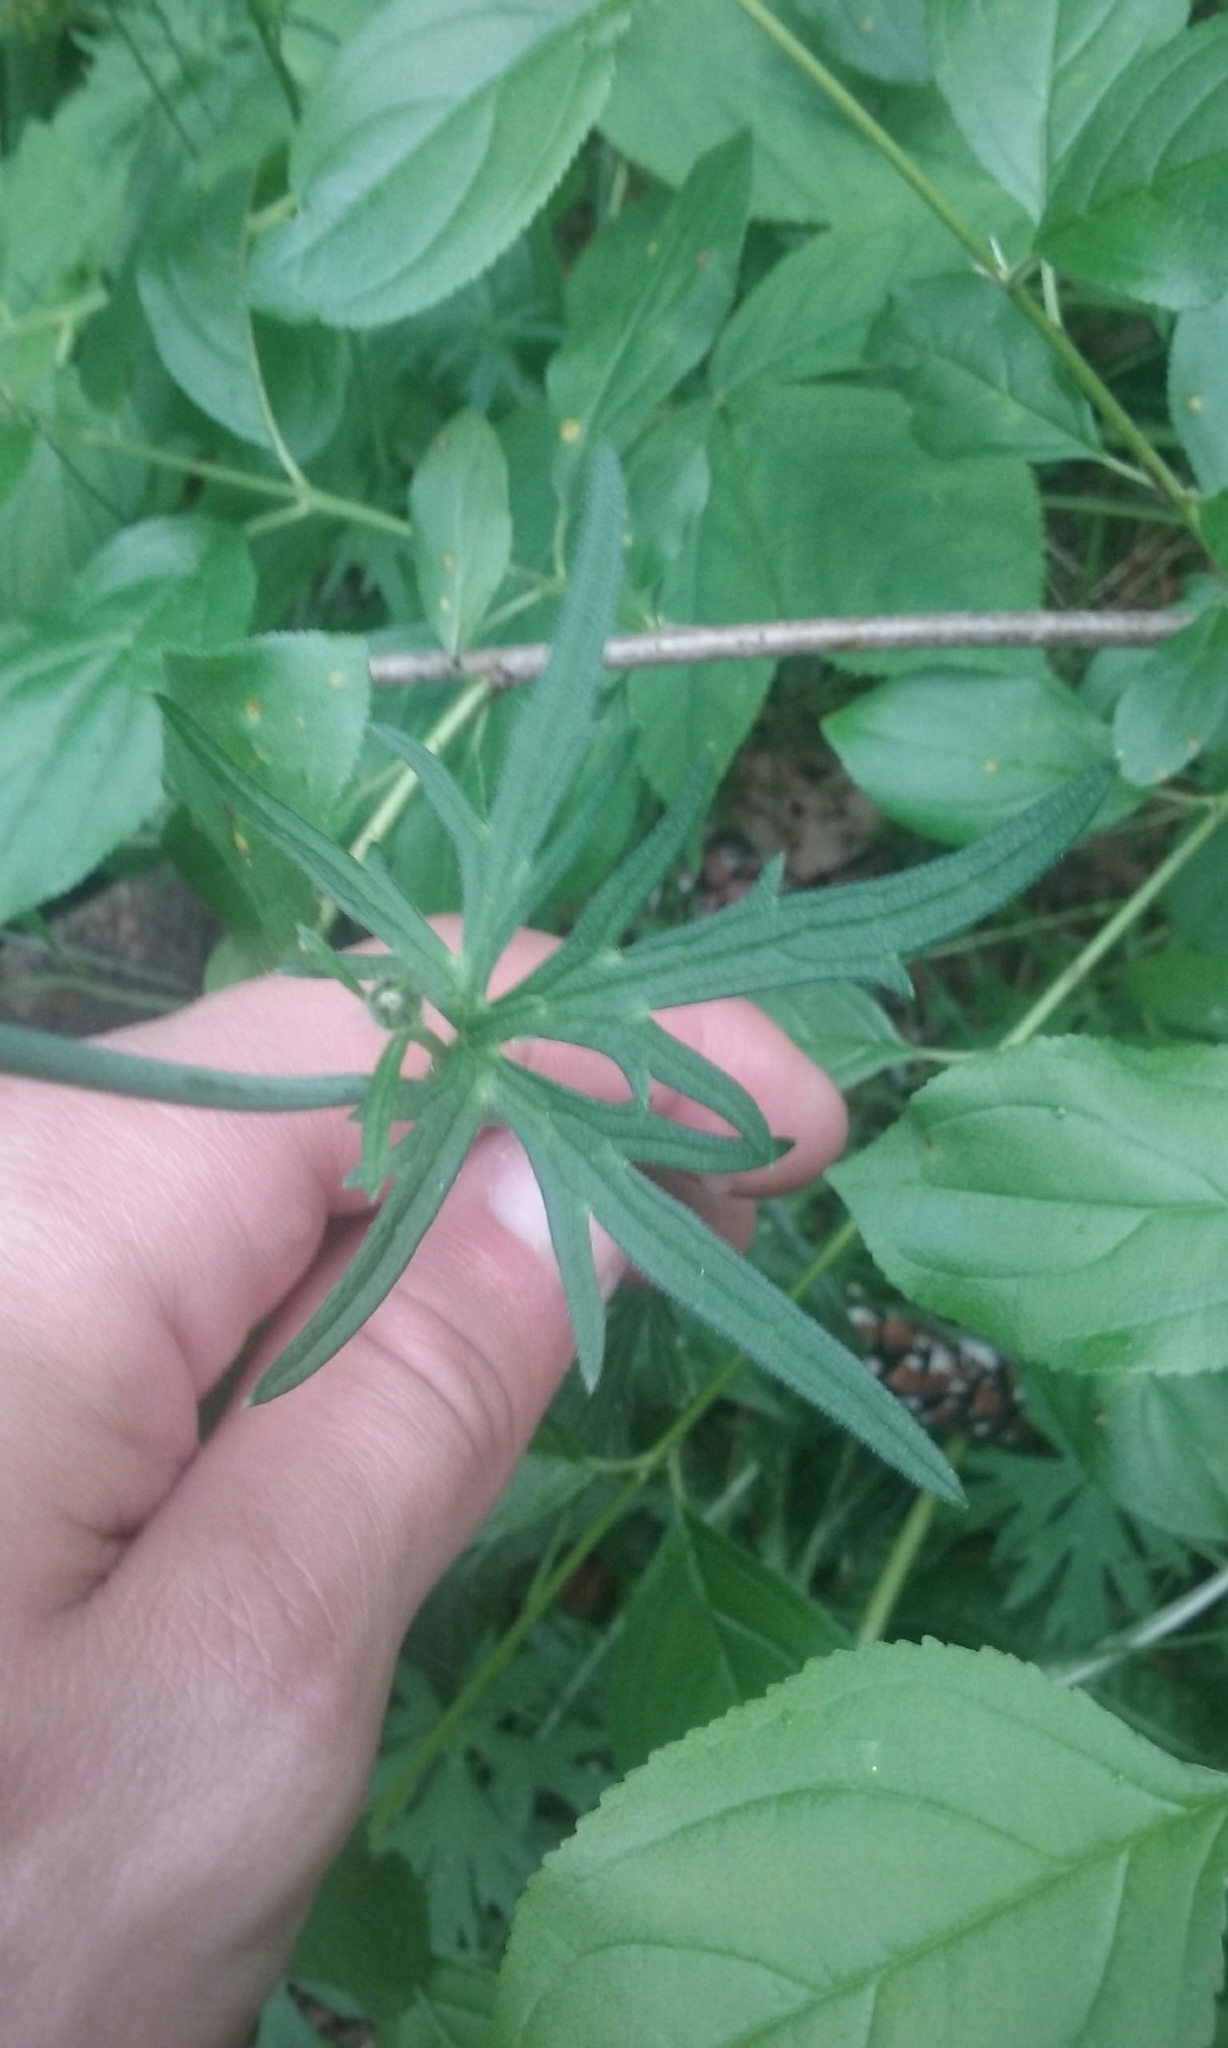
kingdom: Plantae
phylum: Tracheophyta
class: Magnoliopsida
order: Ranunculales
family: Ranunculaceae
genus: Ranunculus
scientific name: Ranunculus acris
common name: Meadow buttercup
